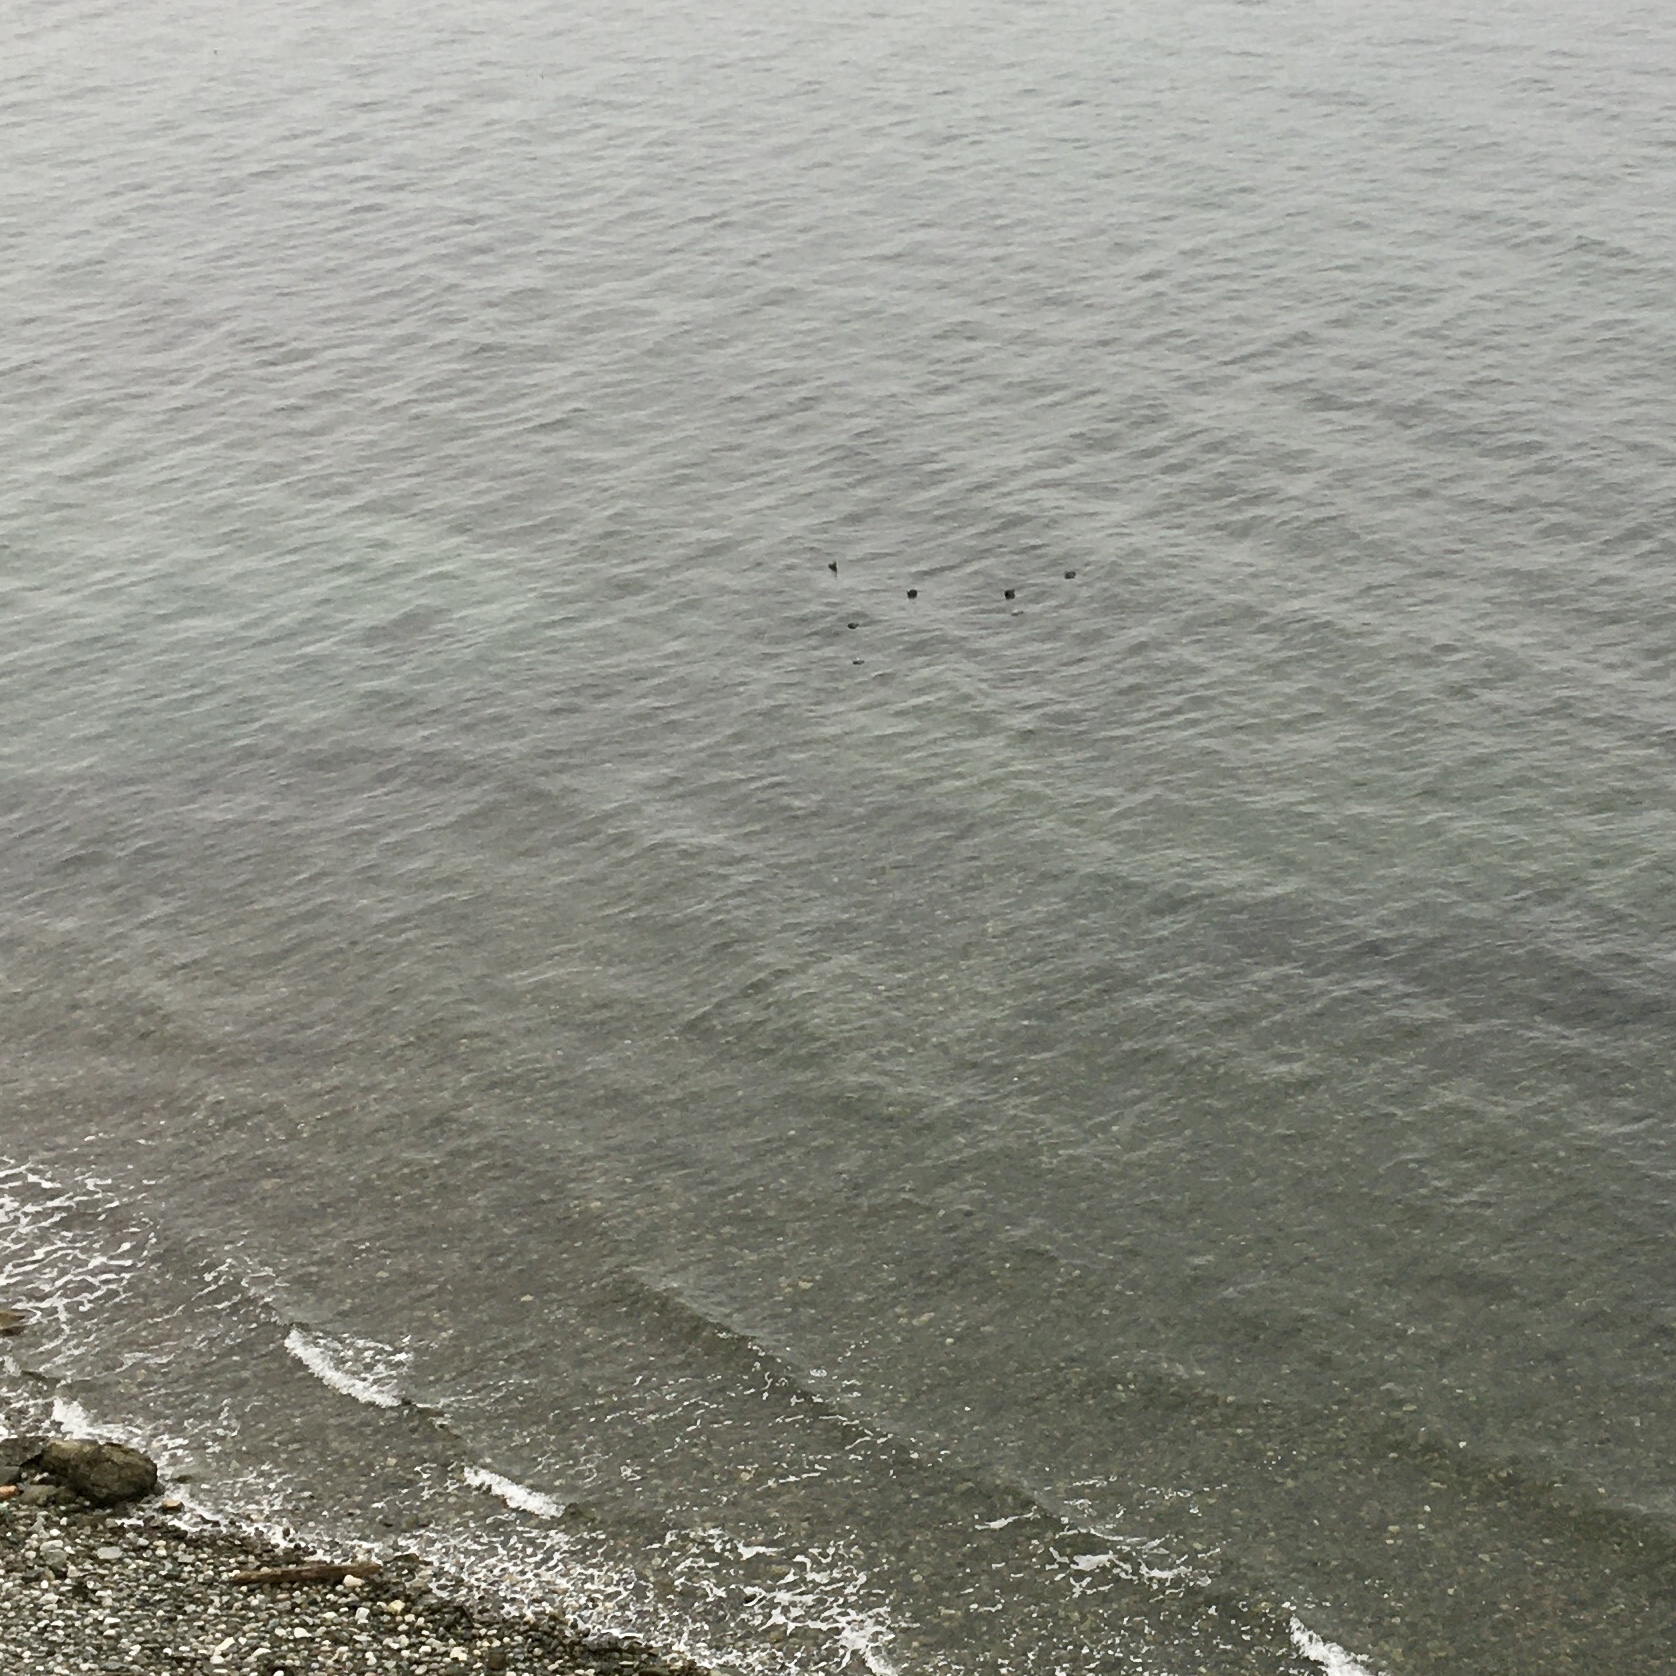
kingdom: Animalia
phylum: Chordata
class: Mammalia
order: Carnivora
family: Phocidae
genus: Phoca
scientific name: Phoca vitulina
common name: Harbor seal
